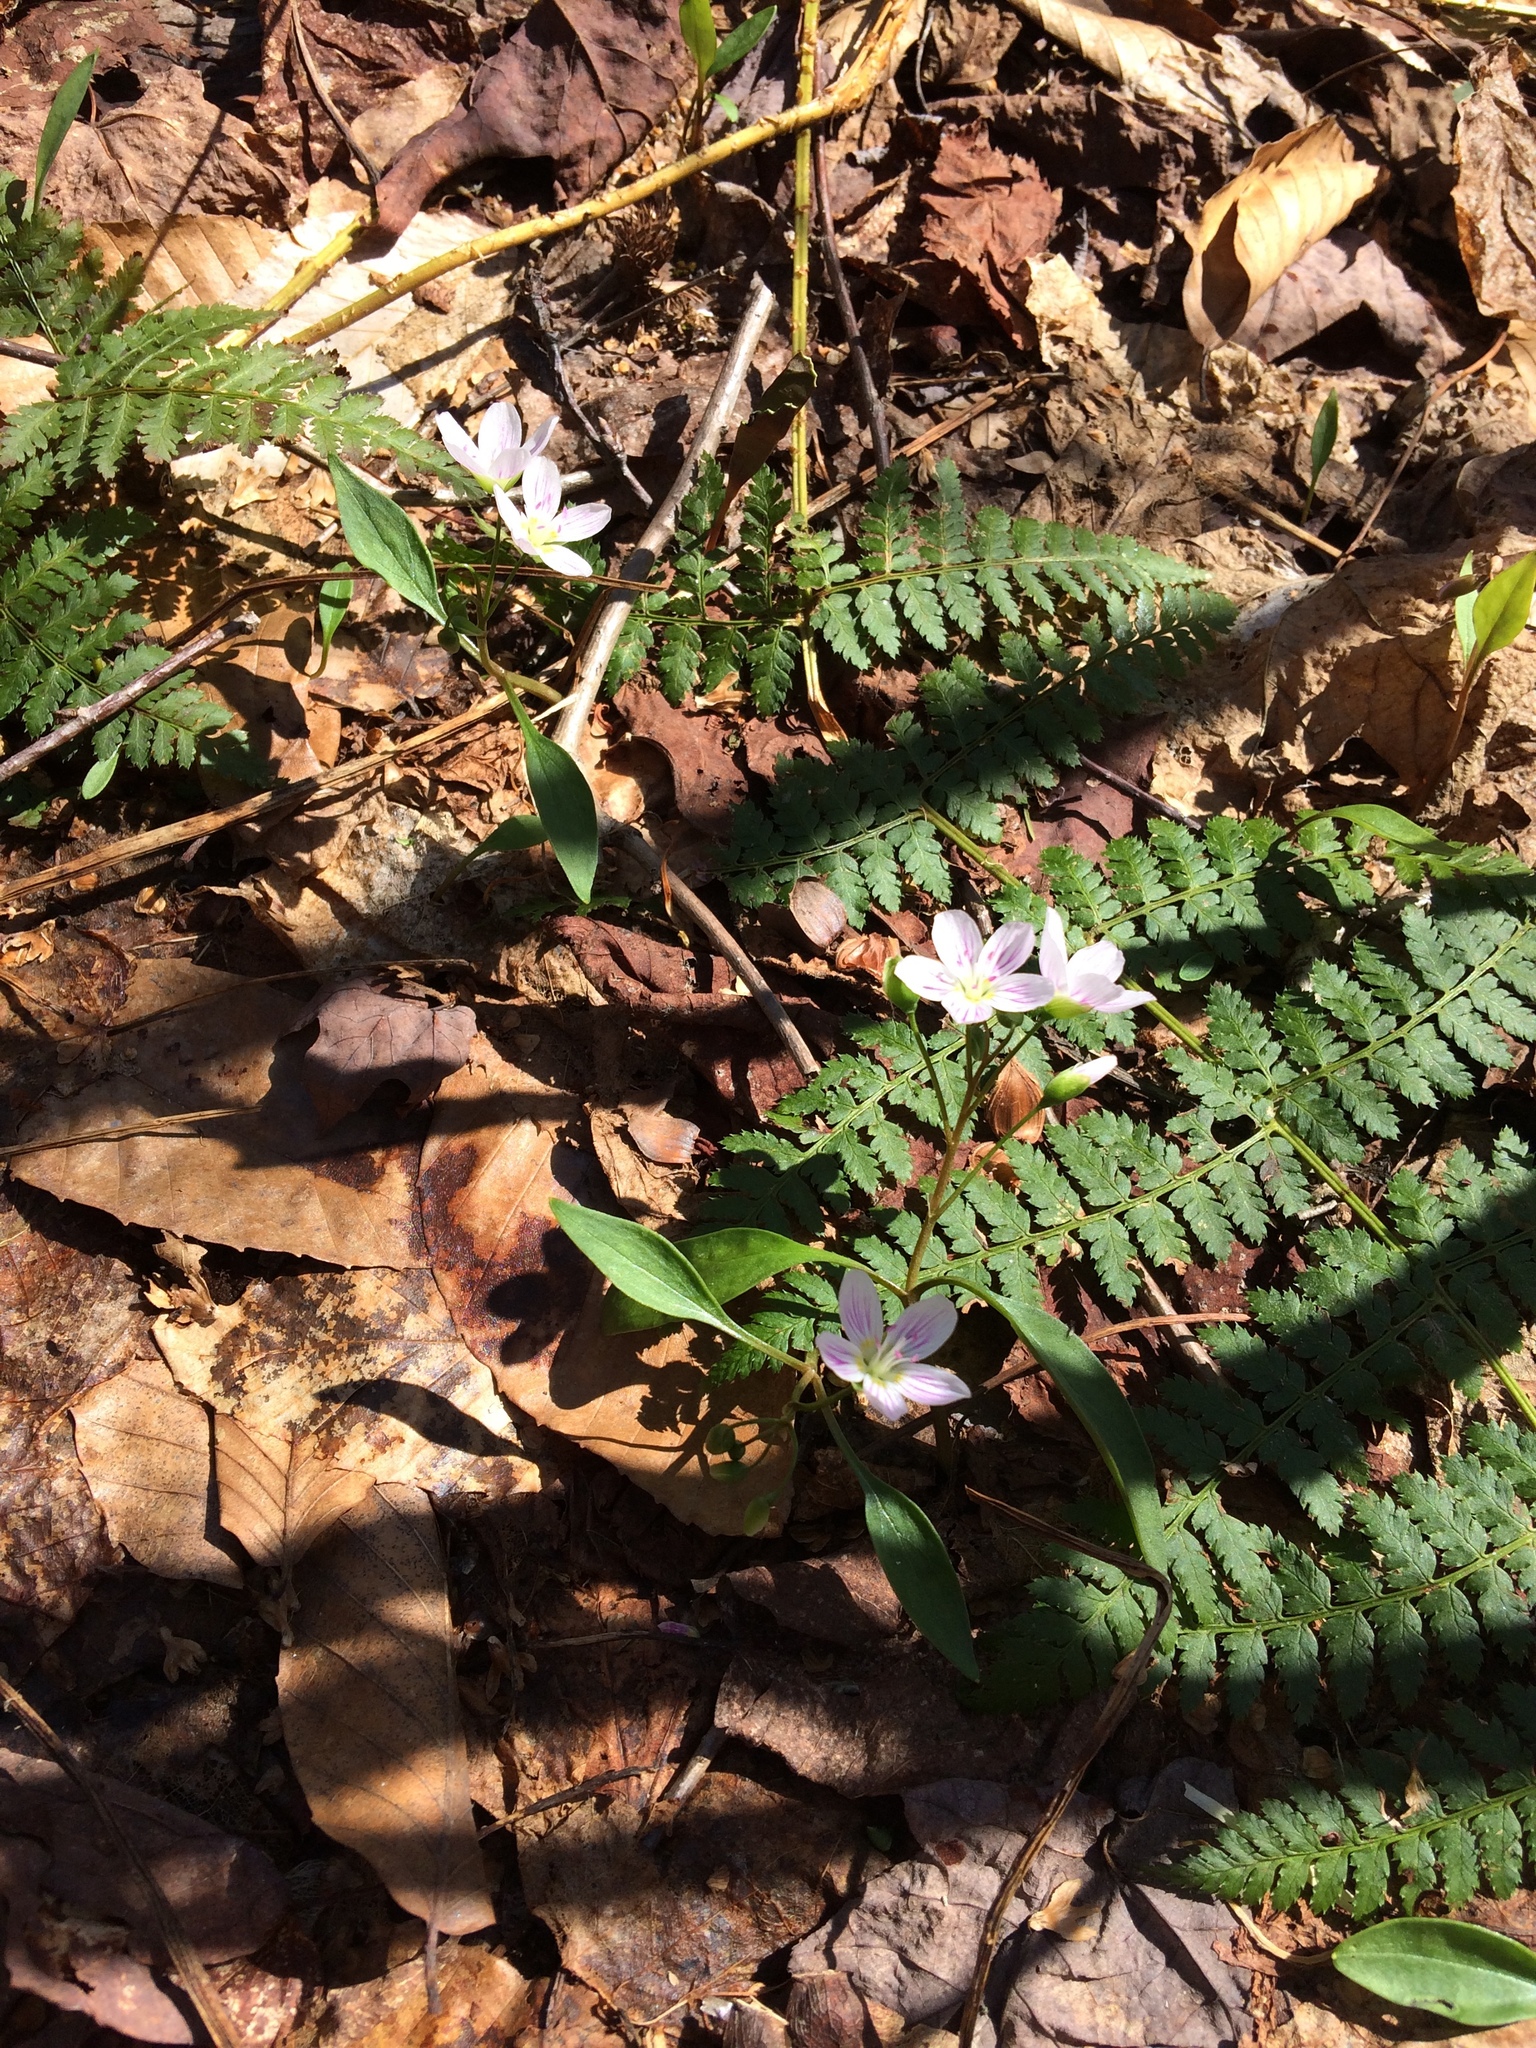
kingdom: Plantae
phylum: Tracheophyta
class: Magnoliopsida
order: Caryophyllales
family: Montiaceae
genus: Claytonia
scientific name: Claytonia caroliniana
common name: Carolina spring beauty
